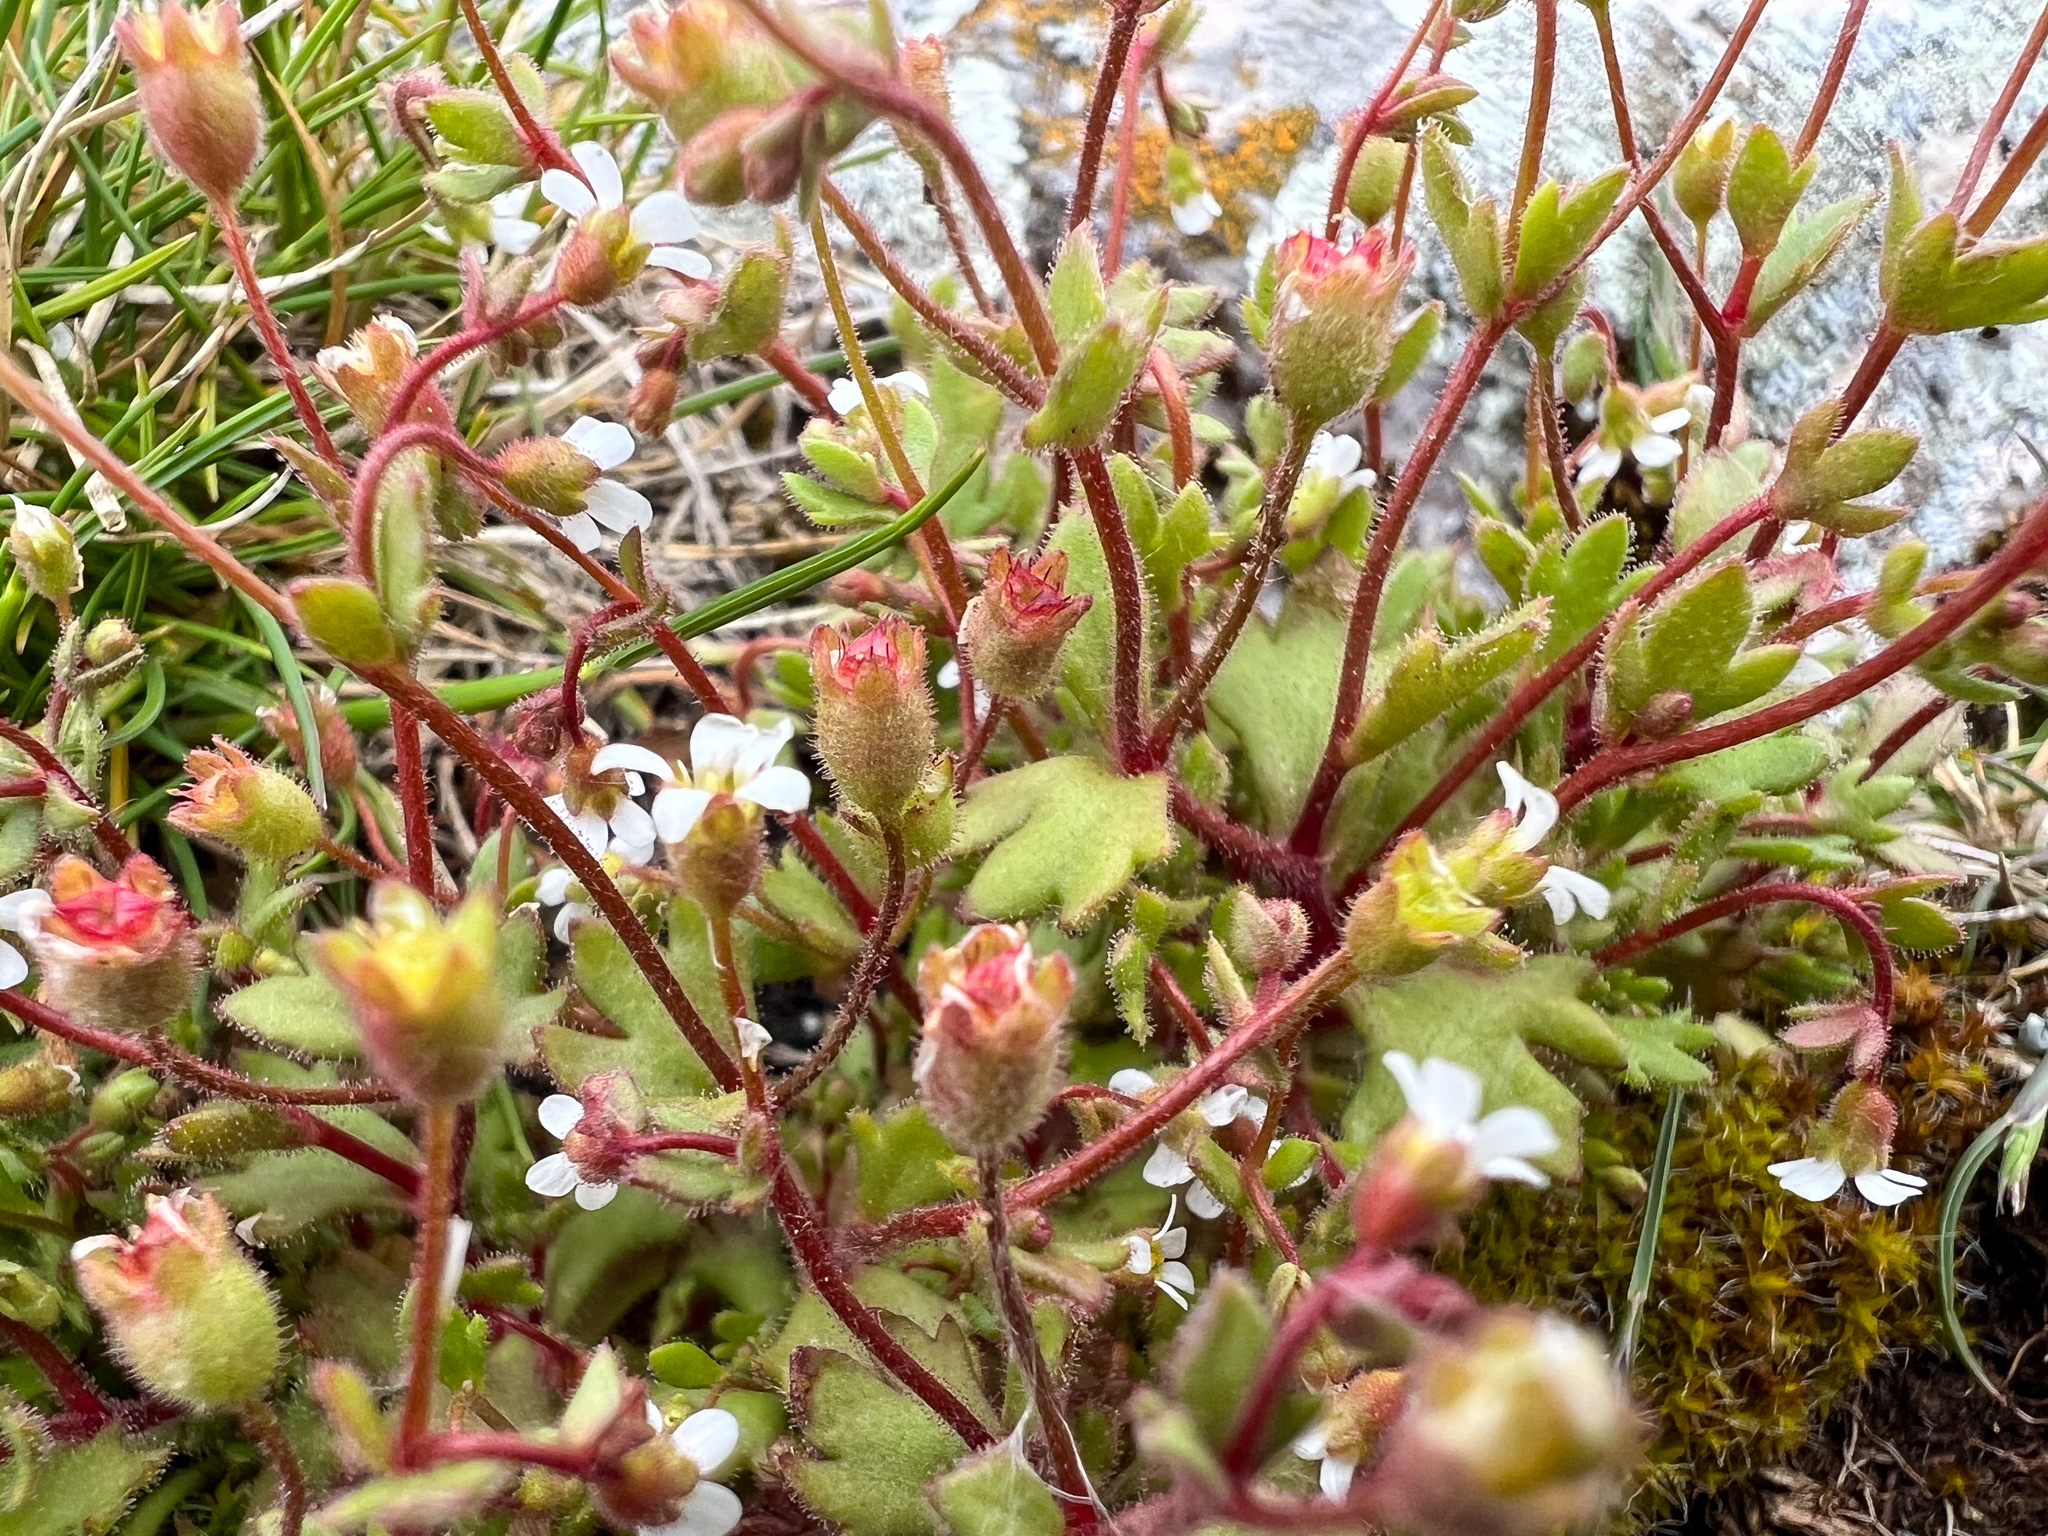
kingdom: Plantae
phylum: Tracheophyta
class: Magnoliopsida
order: Saxifragales
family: Saxifragaceae
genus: Saxifraga
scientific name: Saxifraga tridactylites
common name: Rue-leaved saxifrage
